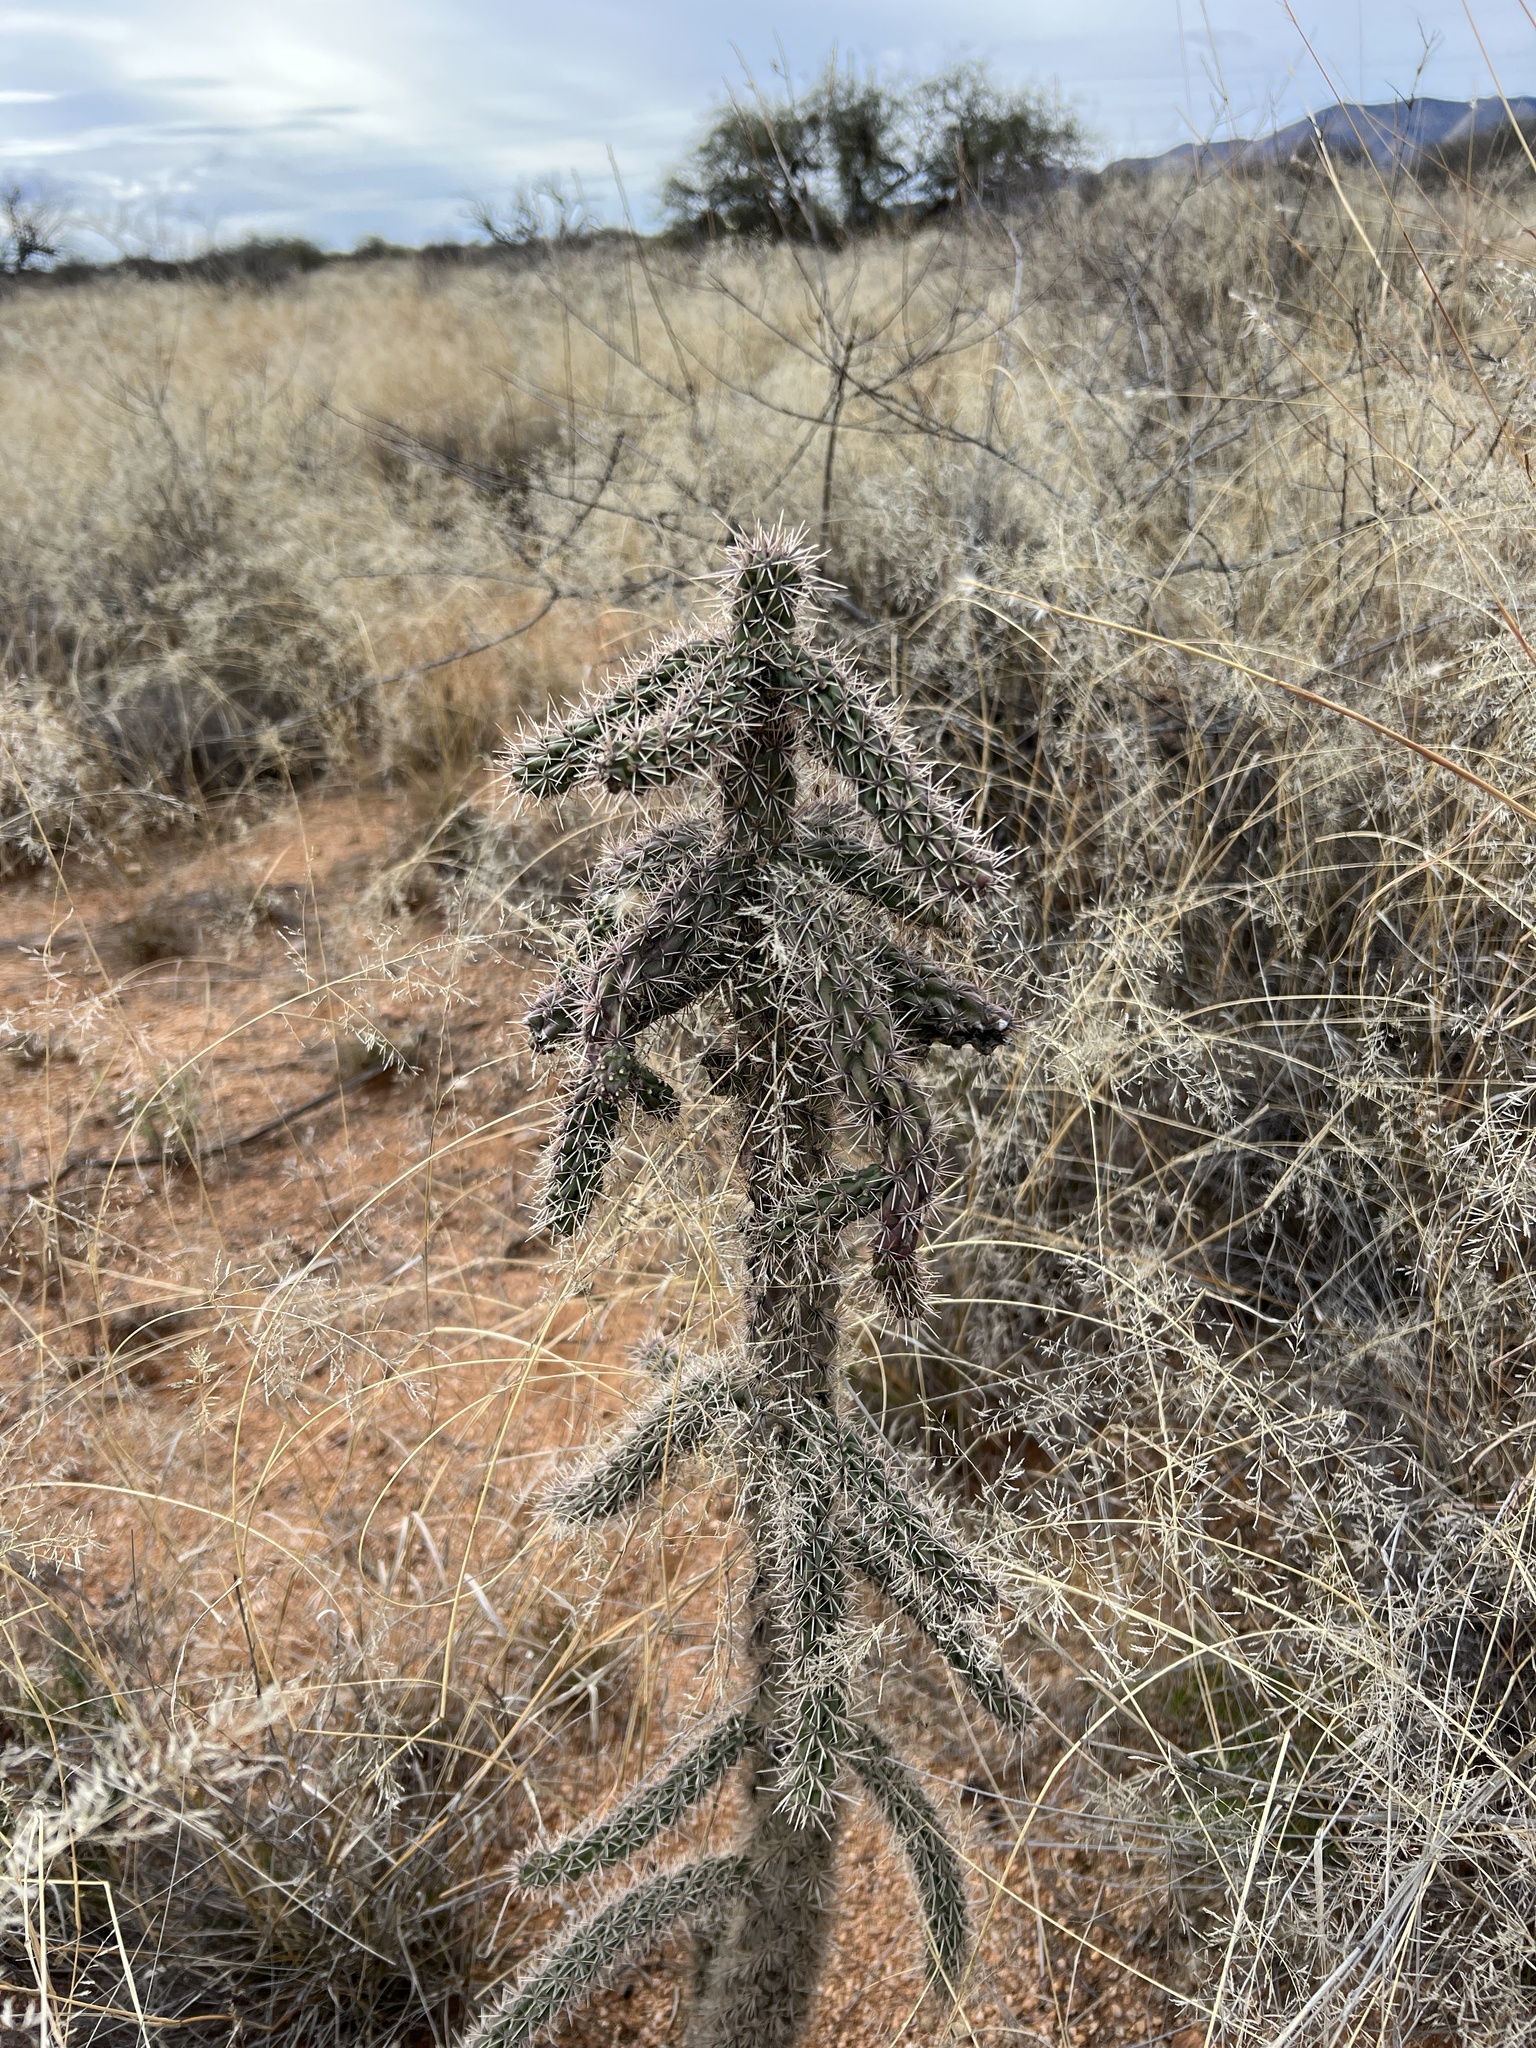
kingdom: Plantae
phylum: Tracheophyta
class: Magnoliopsida
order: Caryophyllales
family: Cactaceae
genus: Cylindropuntia
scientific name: Cylindropuntia imbricata
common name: Candelabrum cactus
